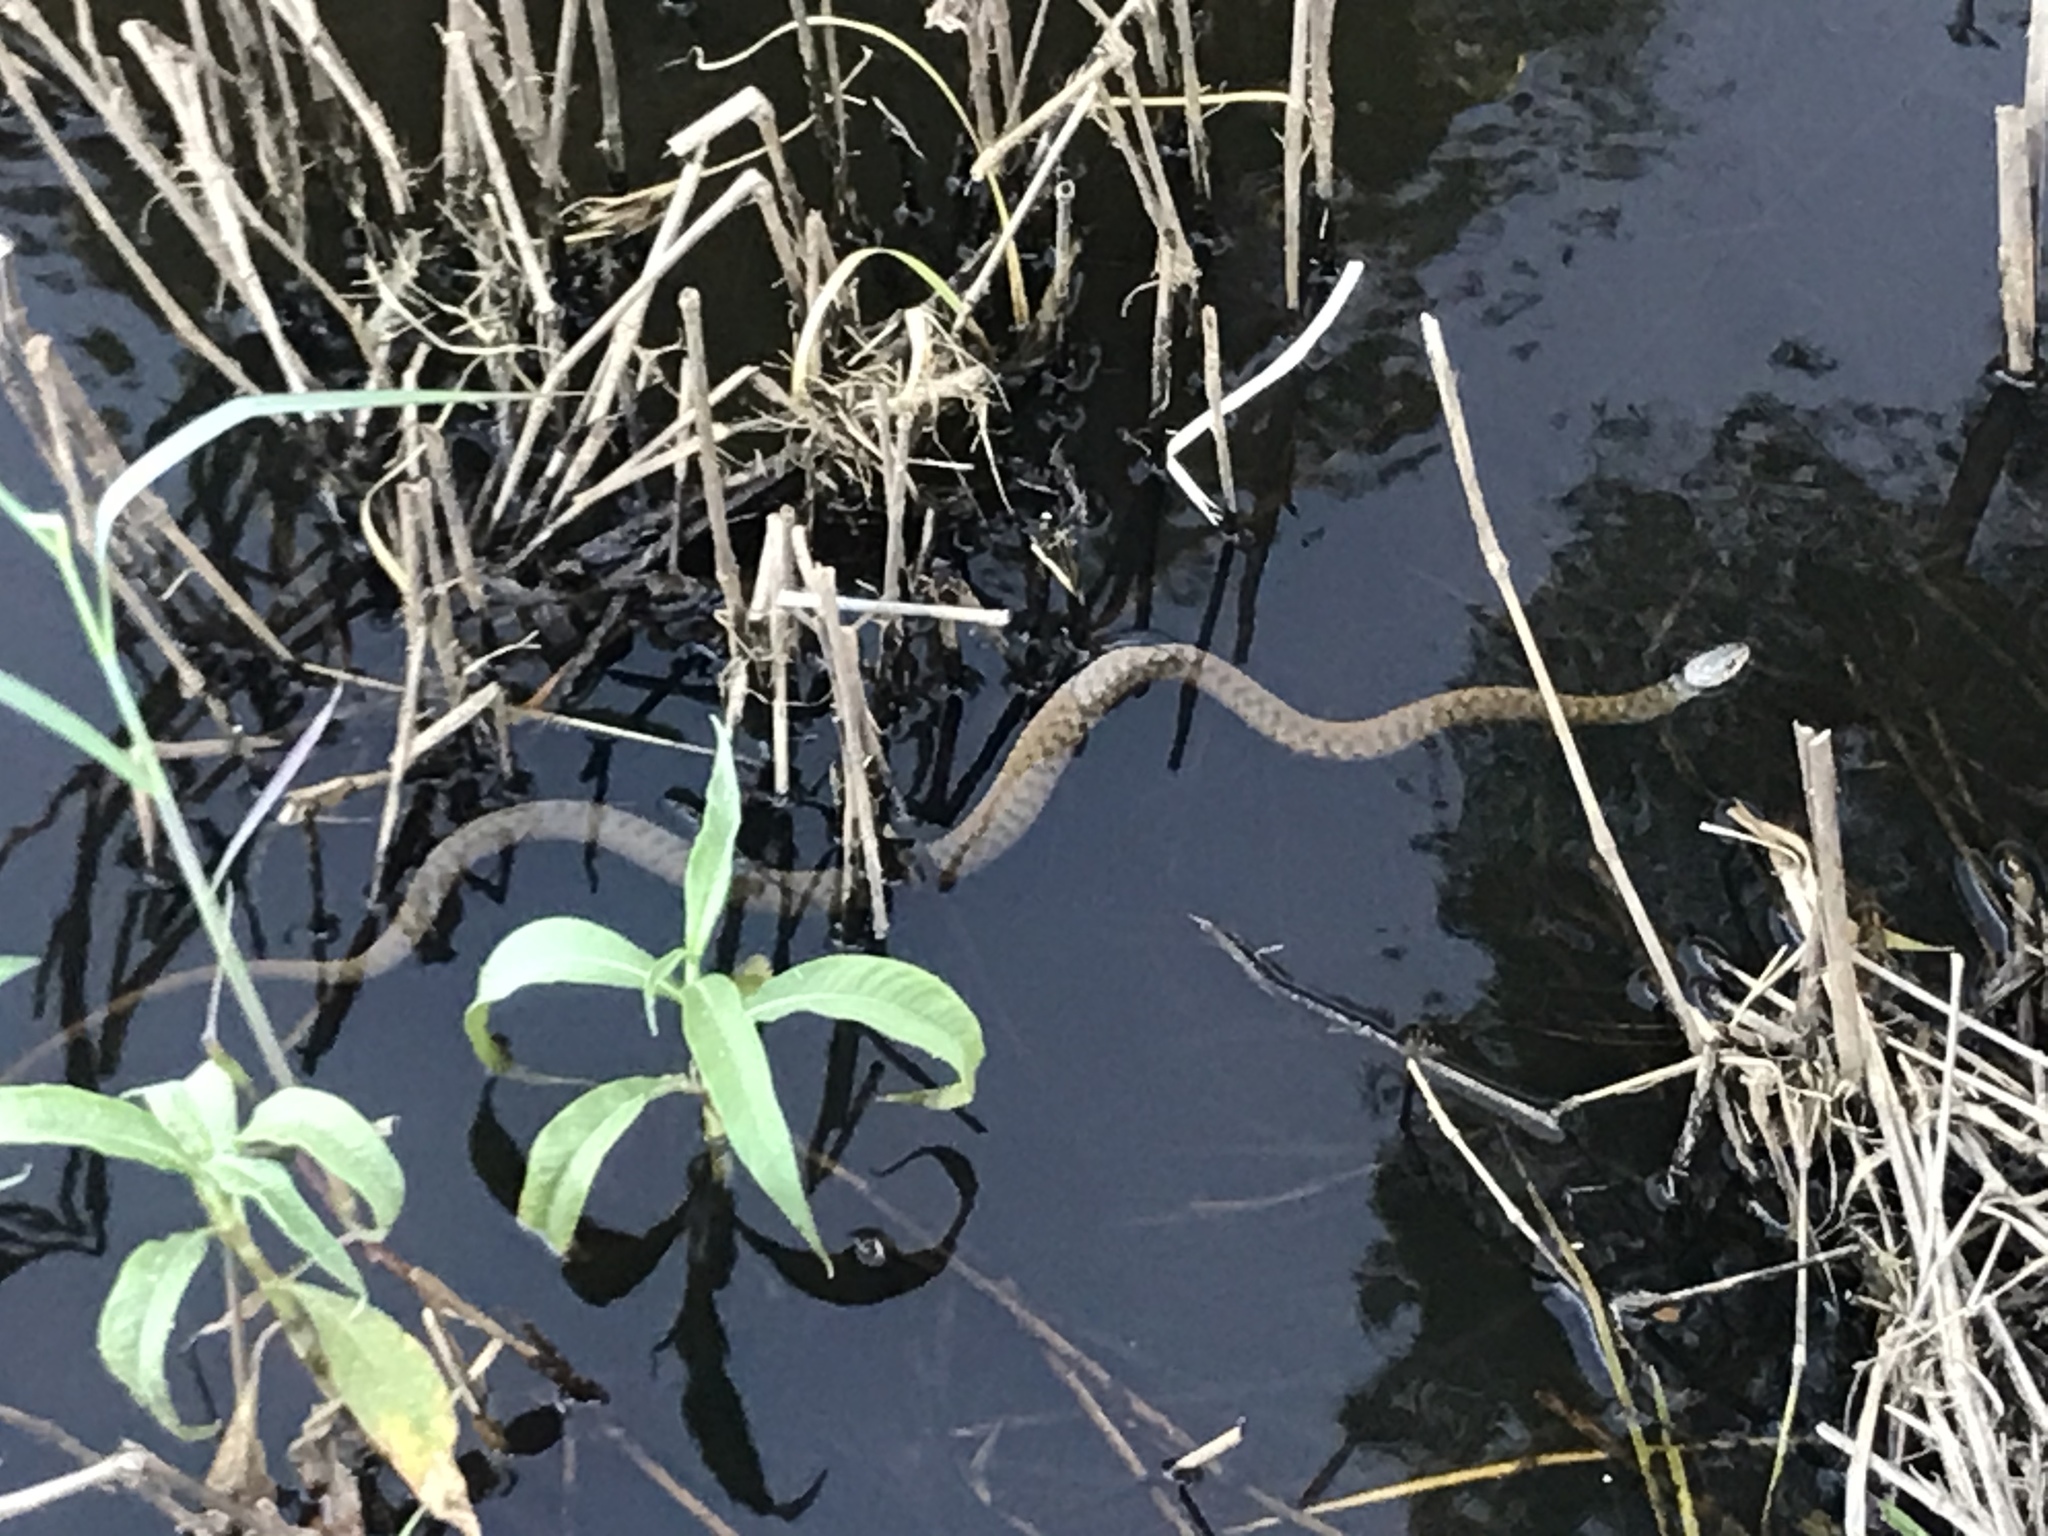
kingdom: Animalia
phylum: Chordata
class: Squamata
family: Colubridae
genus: Tropidonophis
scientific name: Tropidonophis mairii
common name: Common keelback
